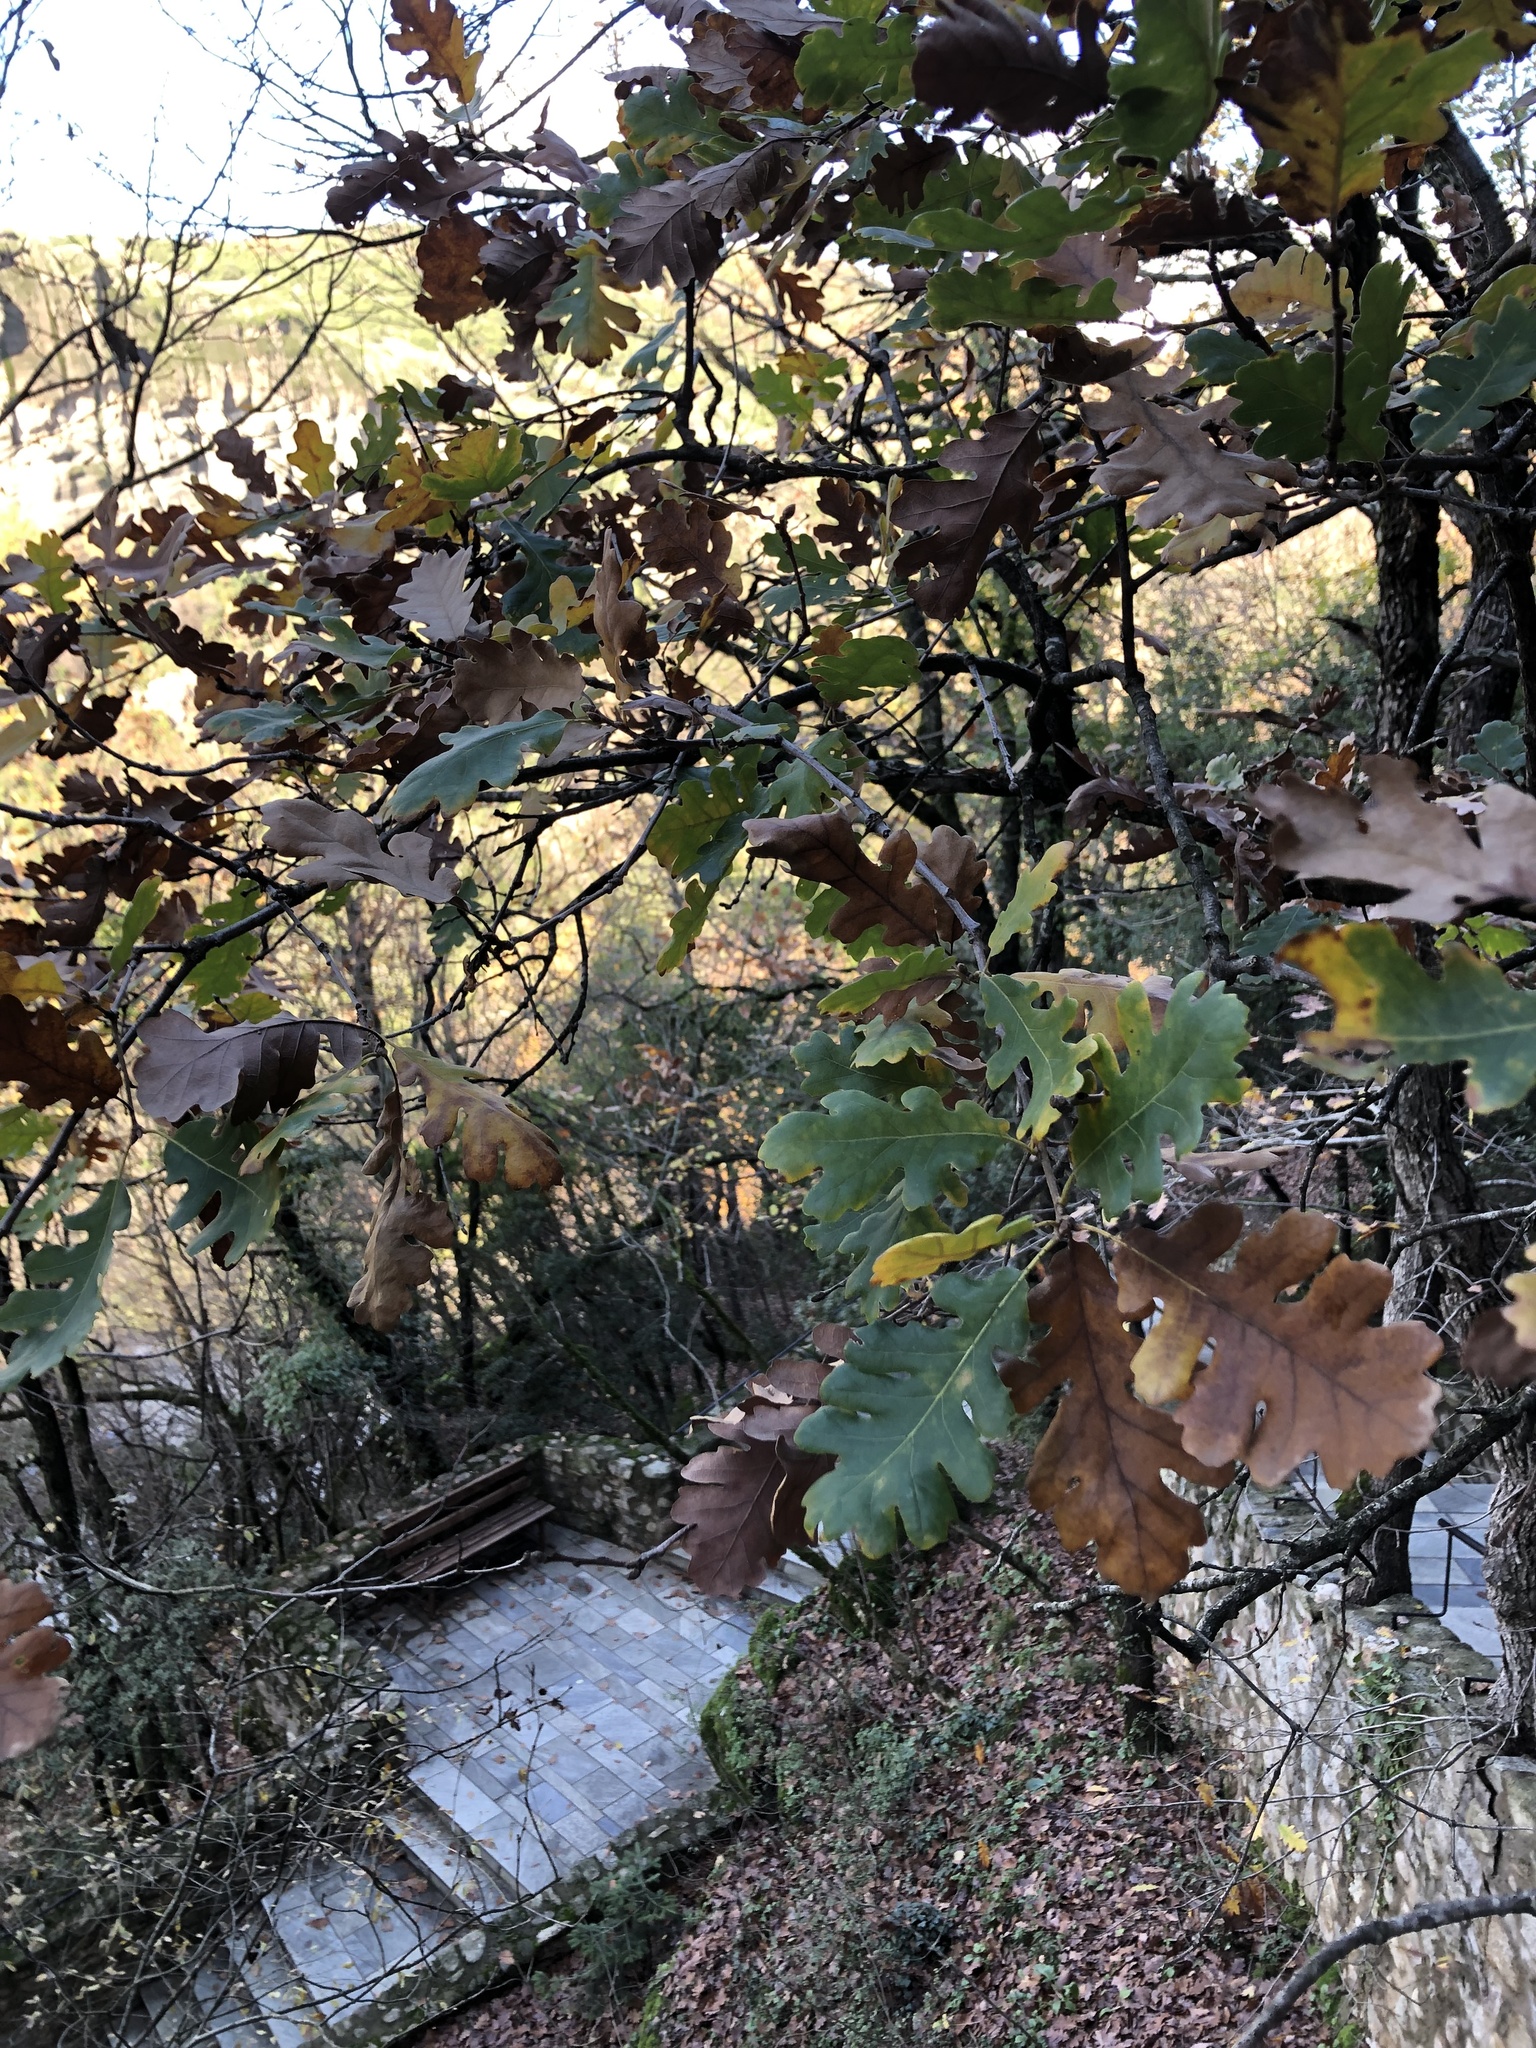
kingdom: Plantae
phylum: Tracheophyta
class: Magnoliopsida
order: Fagales
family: Fagaceae
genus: Quercus
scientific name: Quercus pubescens
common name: Downy oak
